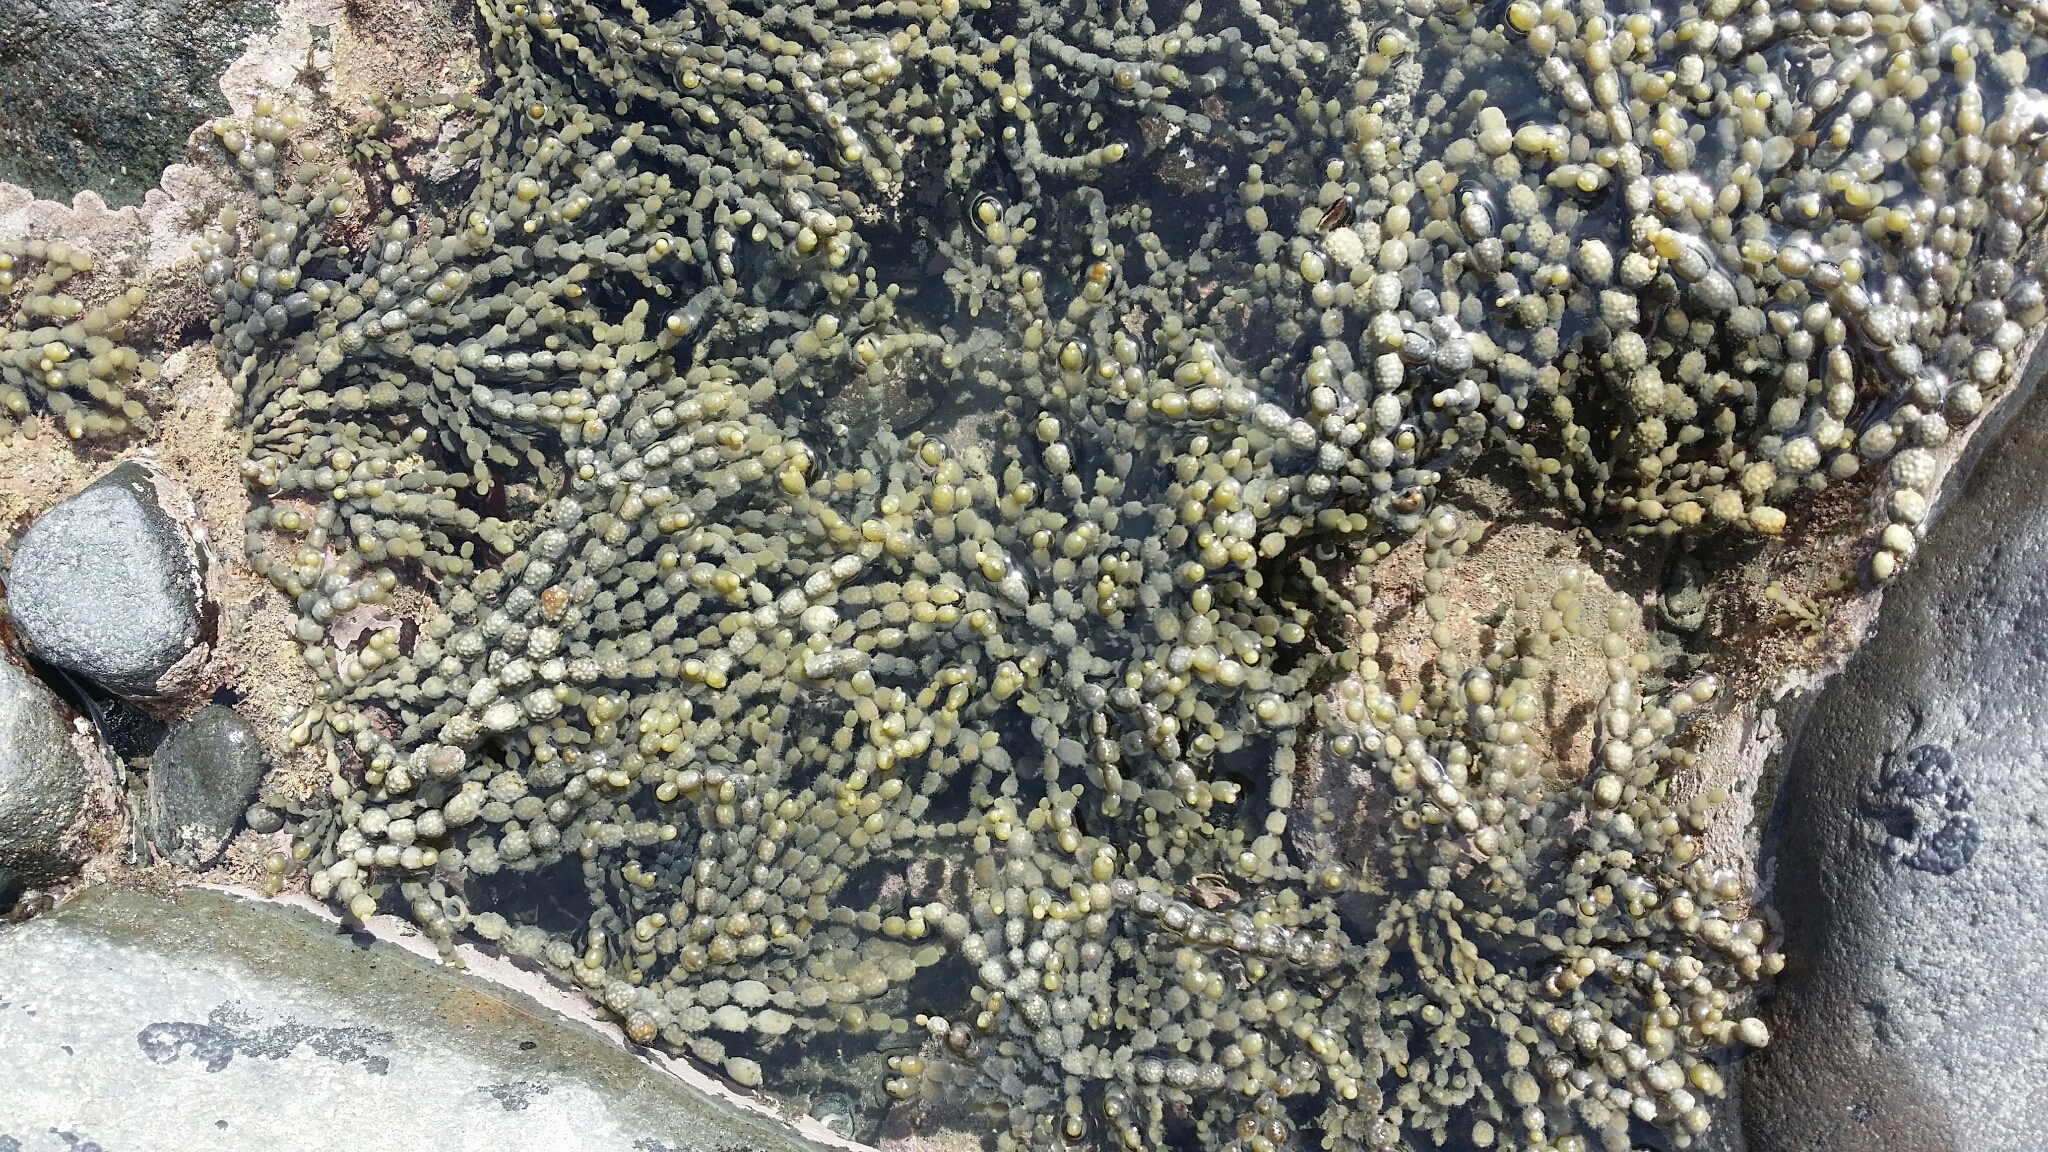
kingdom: Chromista
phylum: Ochrophyta
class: Phaeophyceae
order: Fucales
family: Hormosiraceae
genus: Hormosira
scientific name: Hormosira banksii
